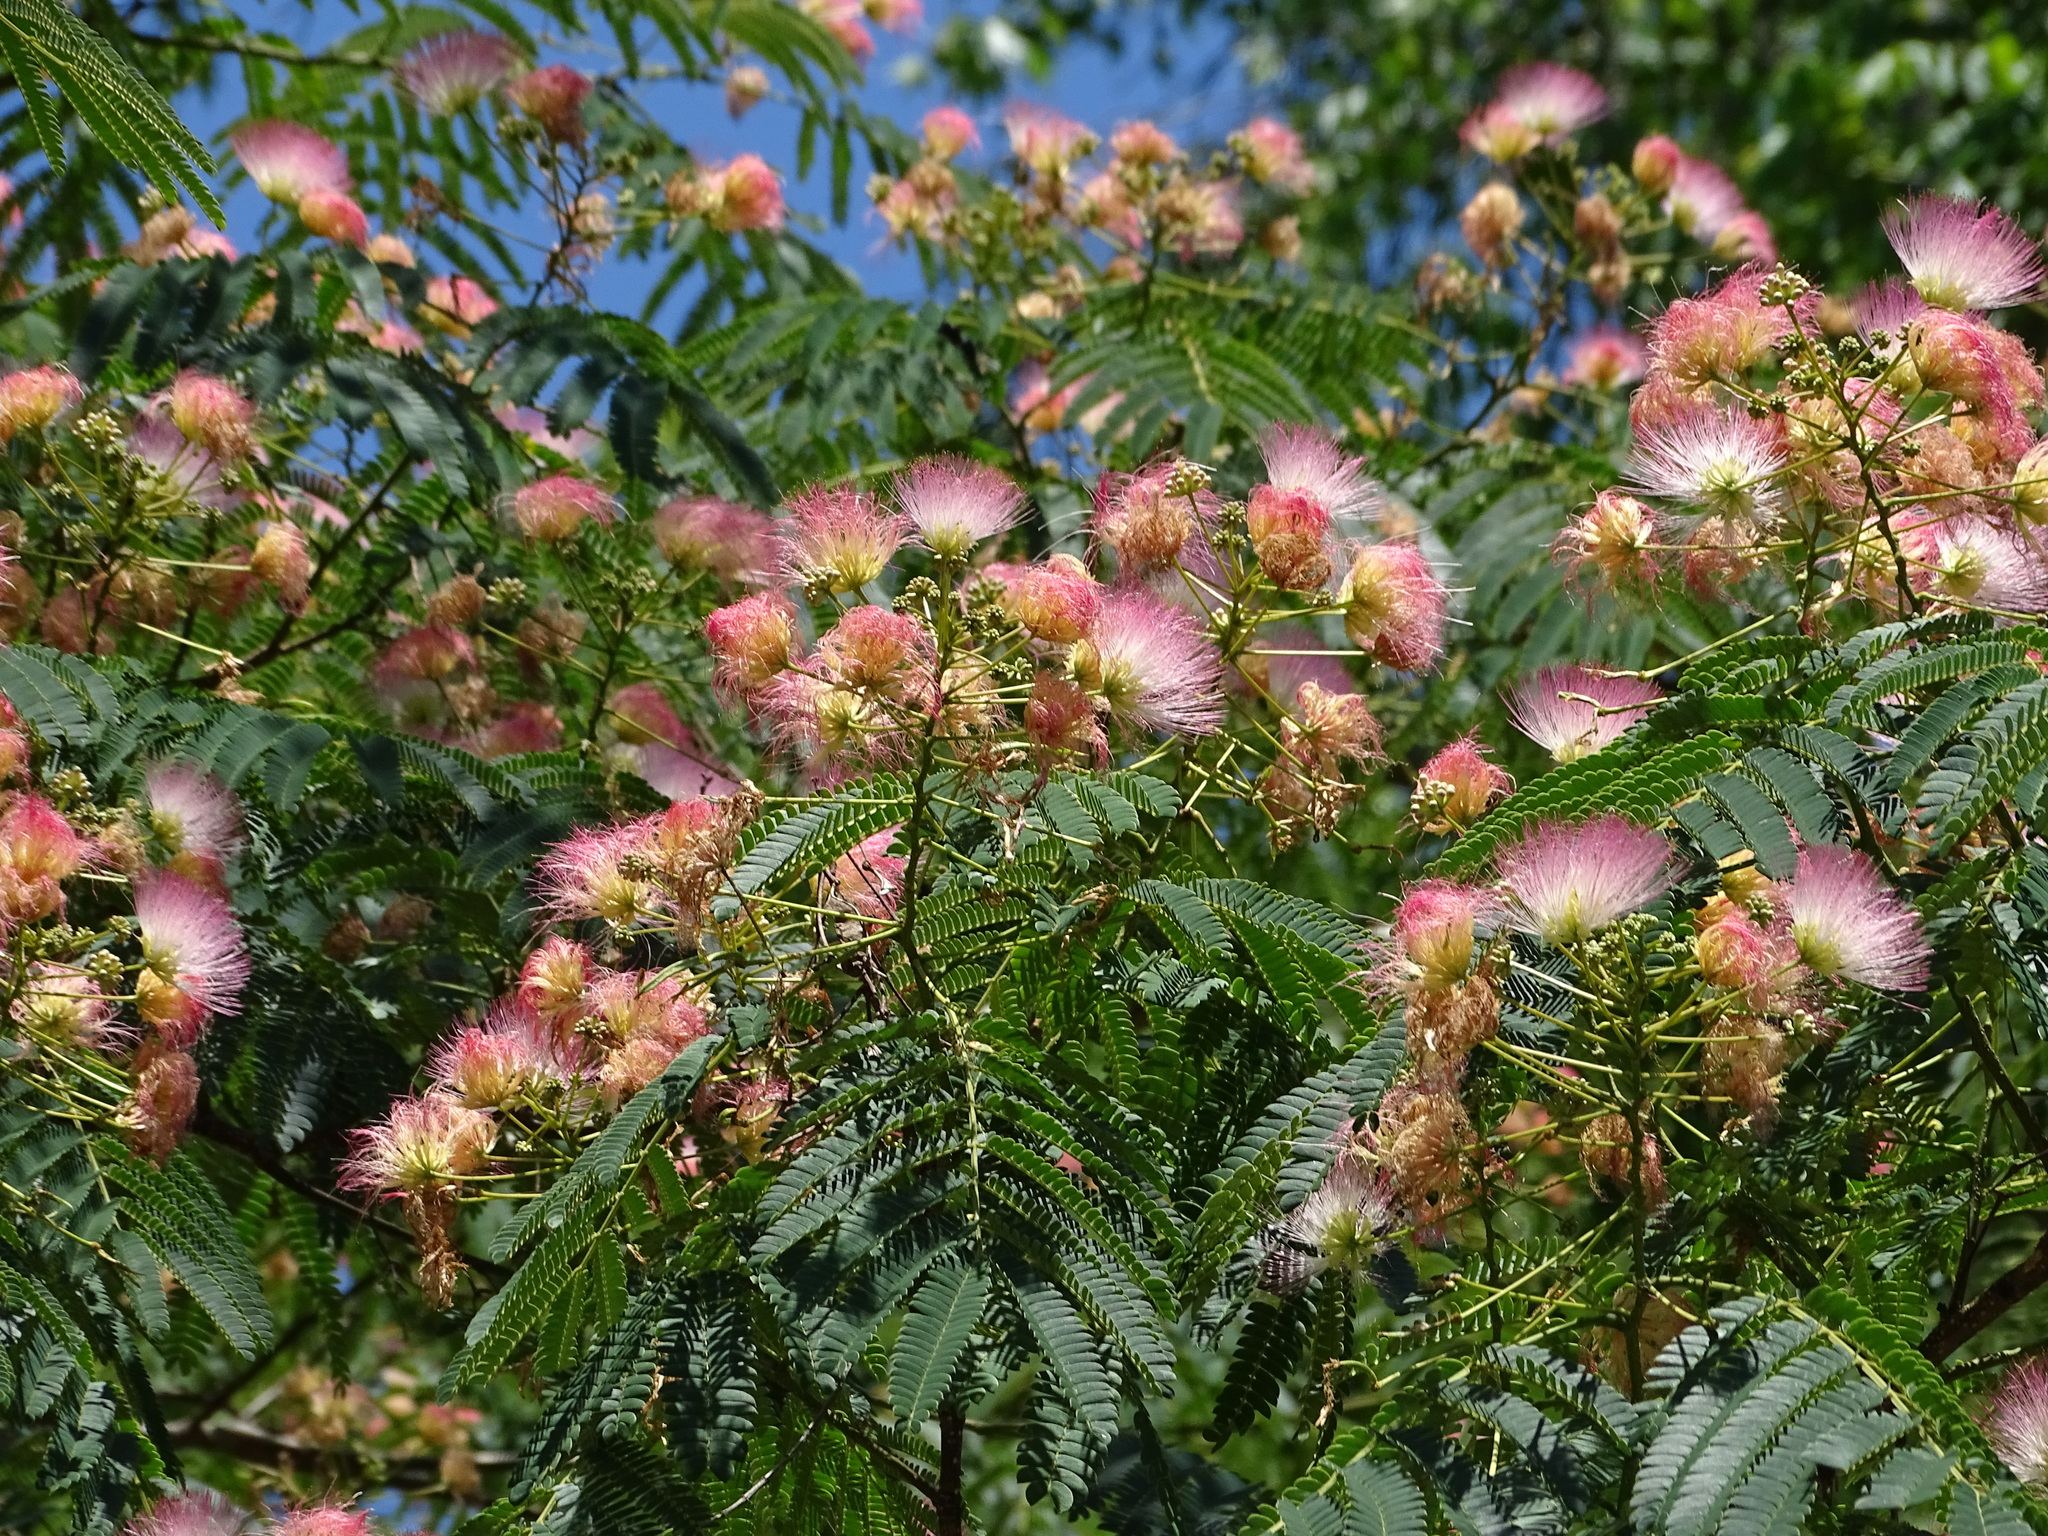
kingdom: Plantae
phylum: Tracheophyta
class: Magnoliopsida
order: Fabales
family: Fabaceae
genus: Albizia
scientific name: Albizia julibrissin
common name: Silktree
